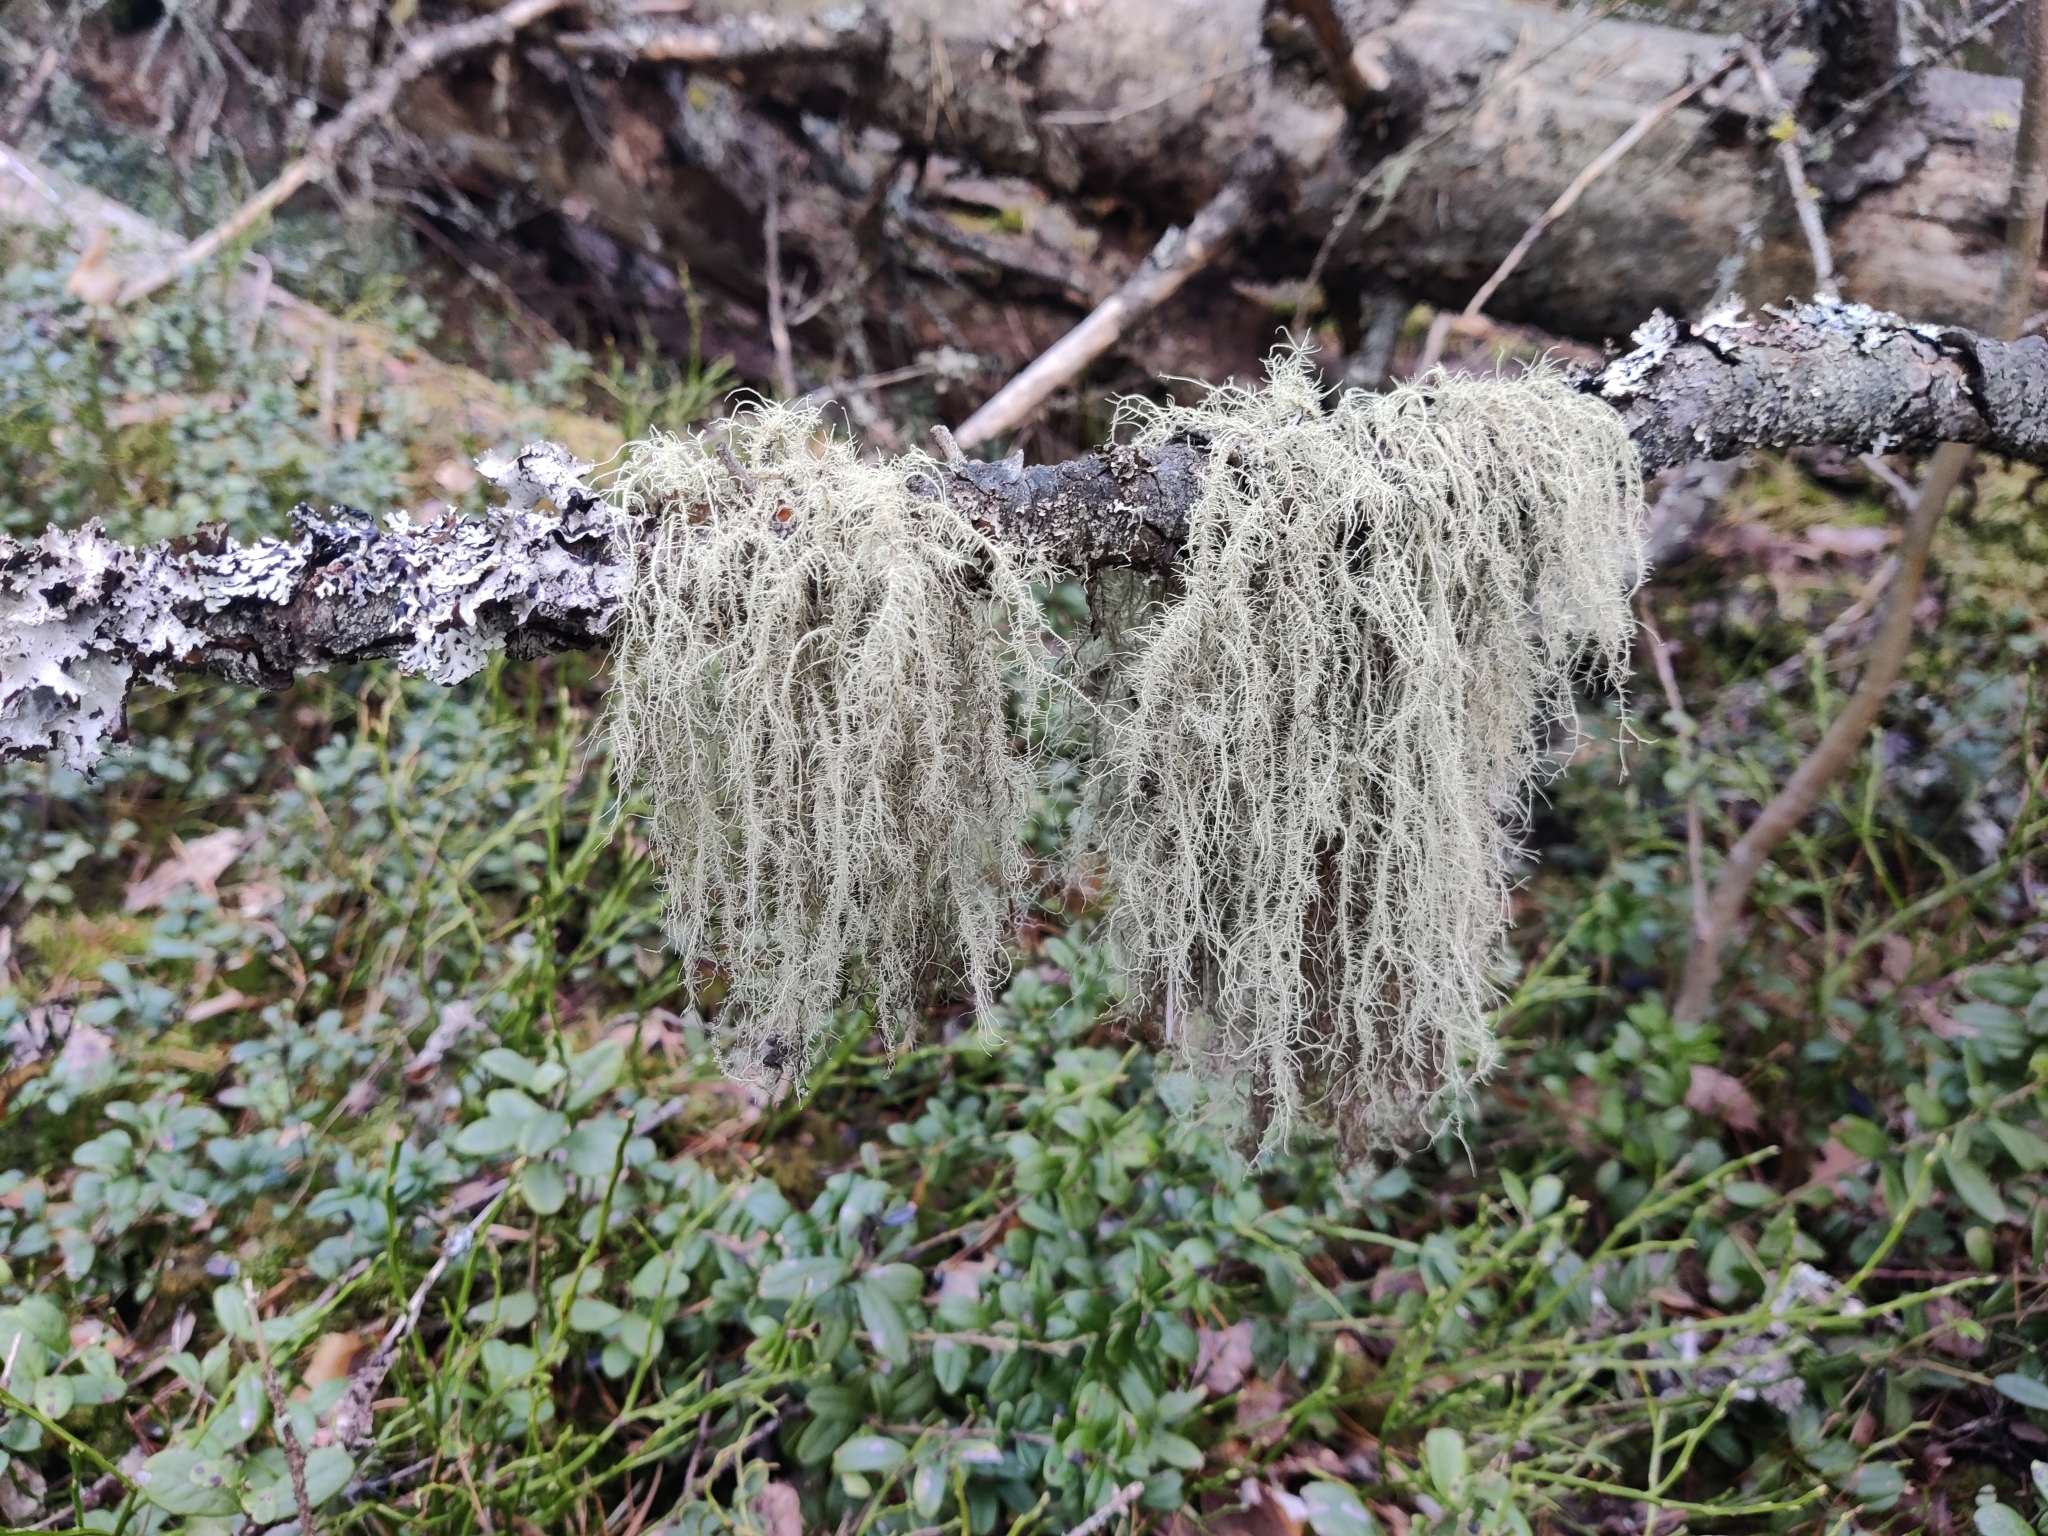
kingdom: Fungi
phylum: Ascomycota
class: Lecanoromycetes
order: Lecanorales
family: Parmeliaceae
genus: Usnea
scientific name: Usnea dasopoga
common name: Fishbone beard lichen
